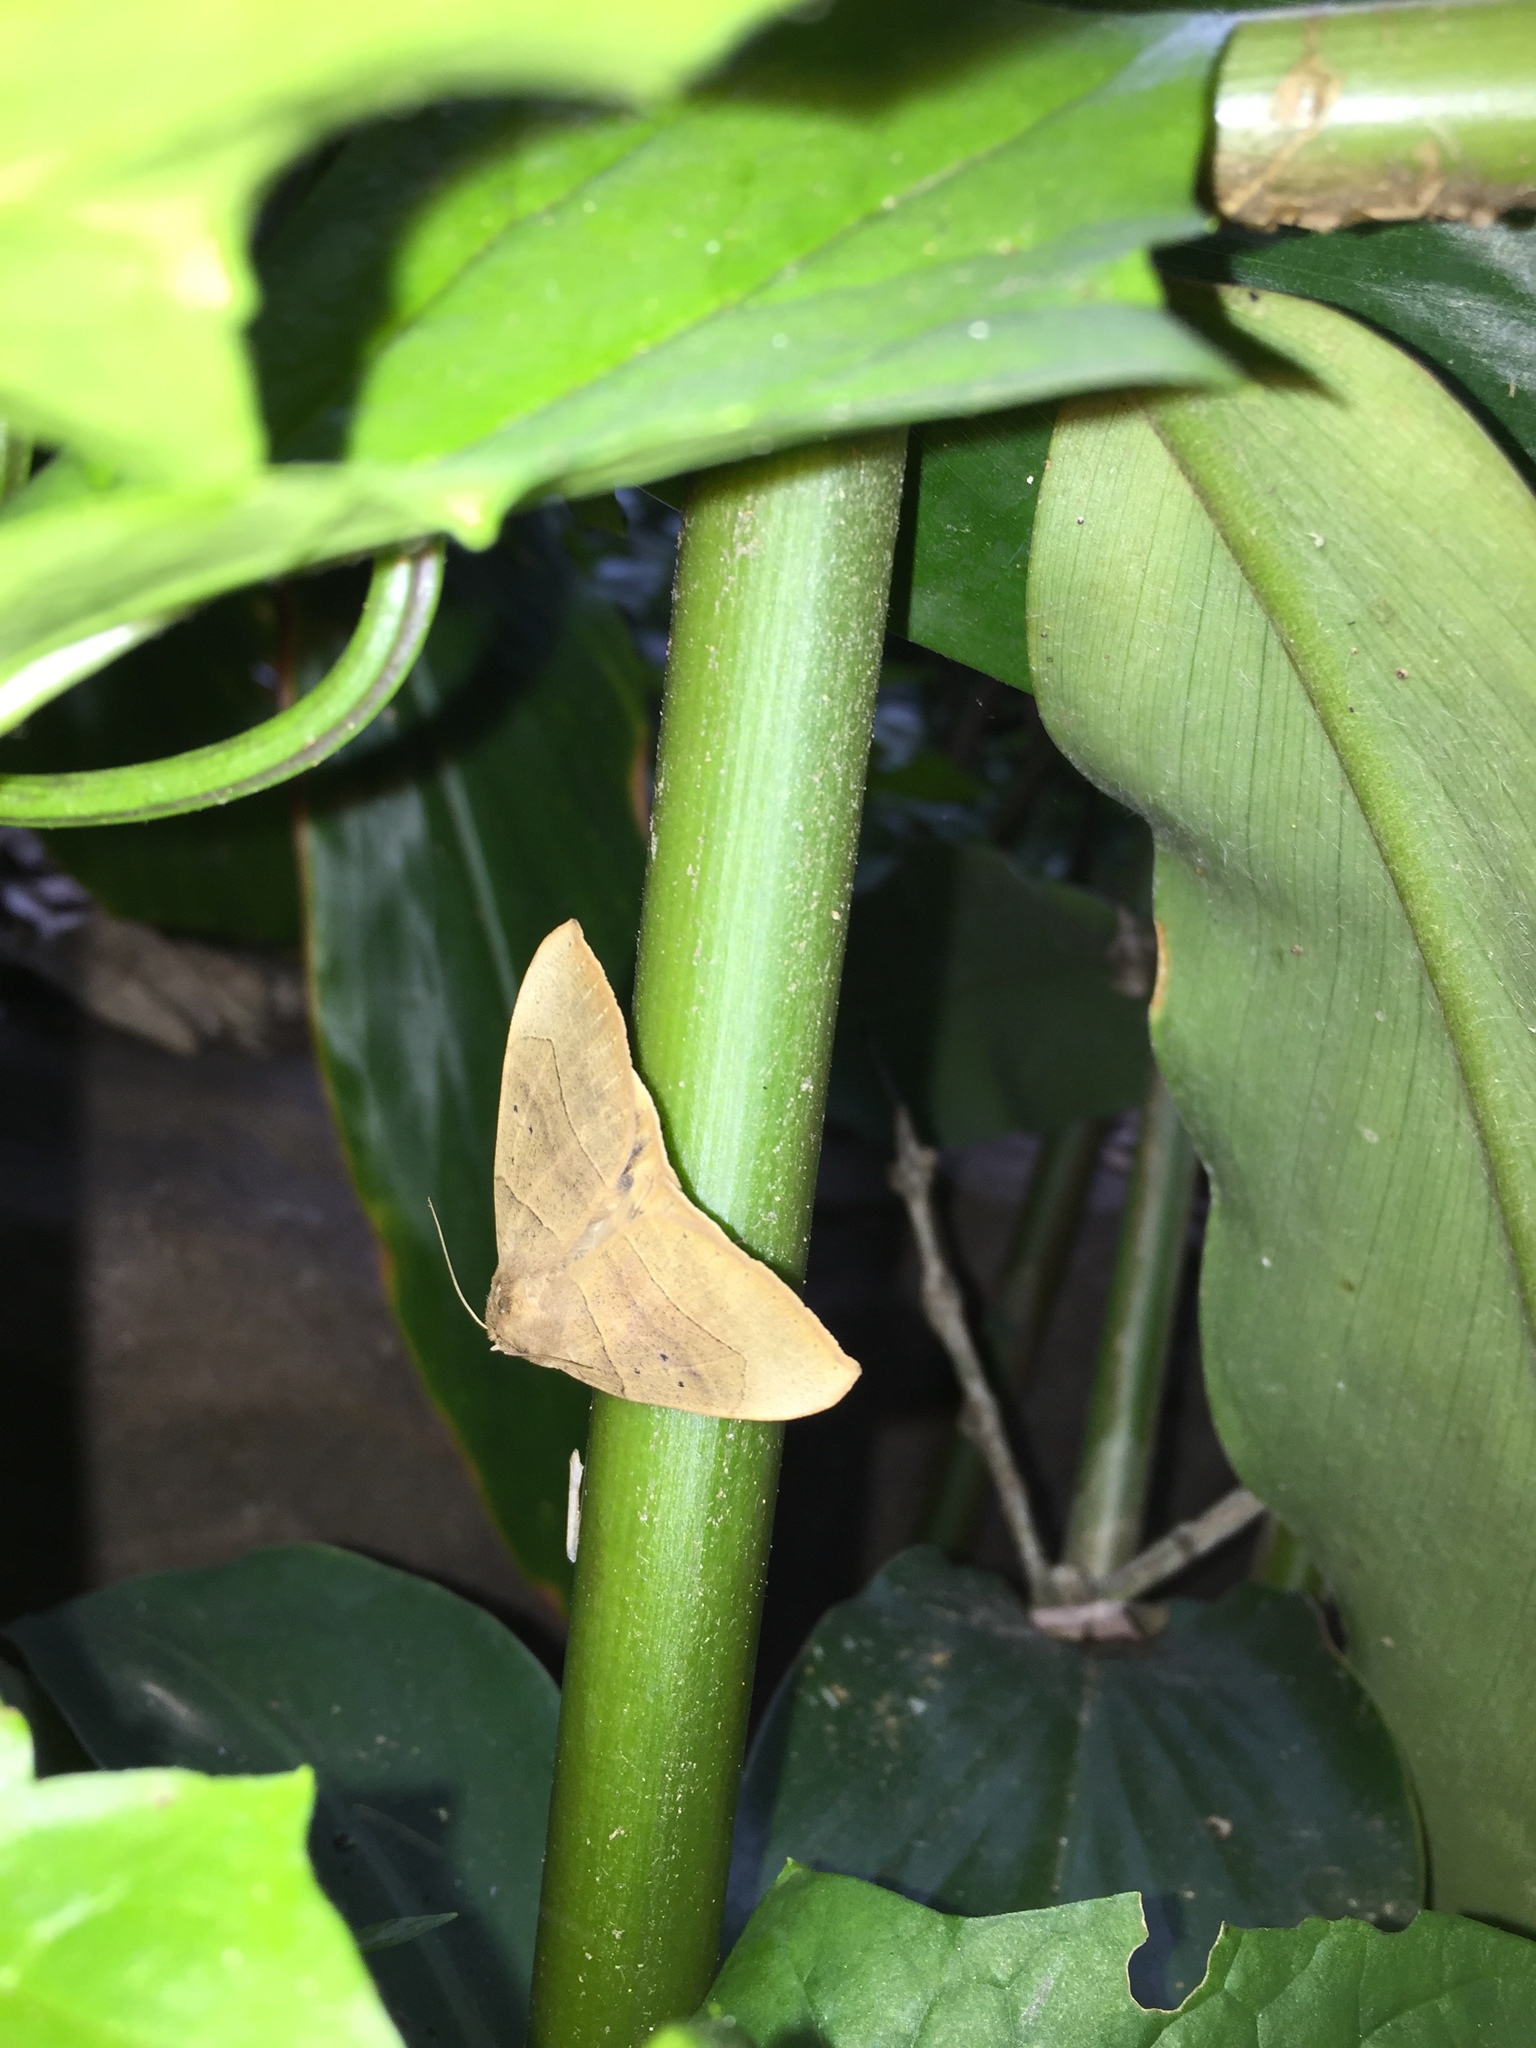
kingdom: Animalia
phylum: Arthropoda
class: Insecta
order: Lepidoptera
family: Erebidae
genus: Achaea
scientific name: Achaea trapezoides
